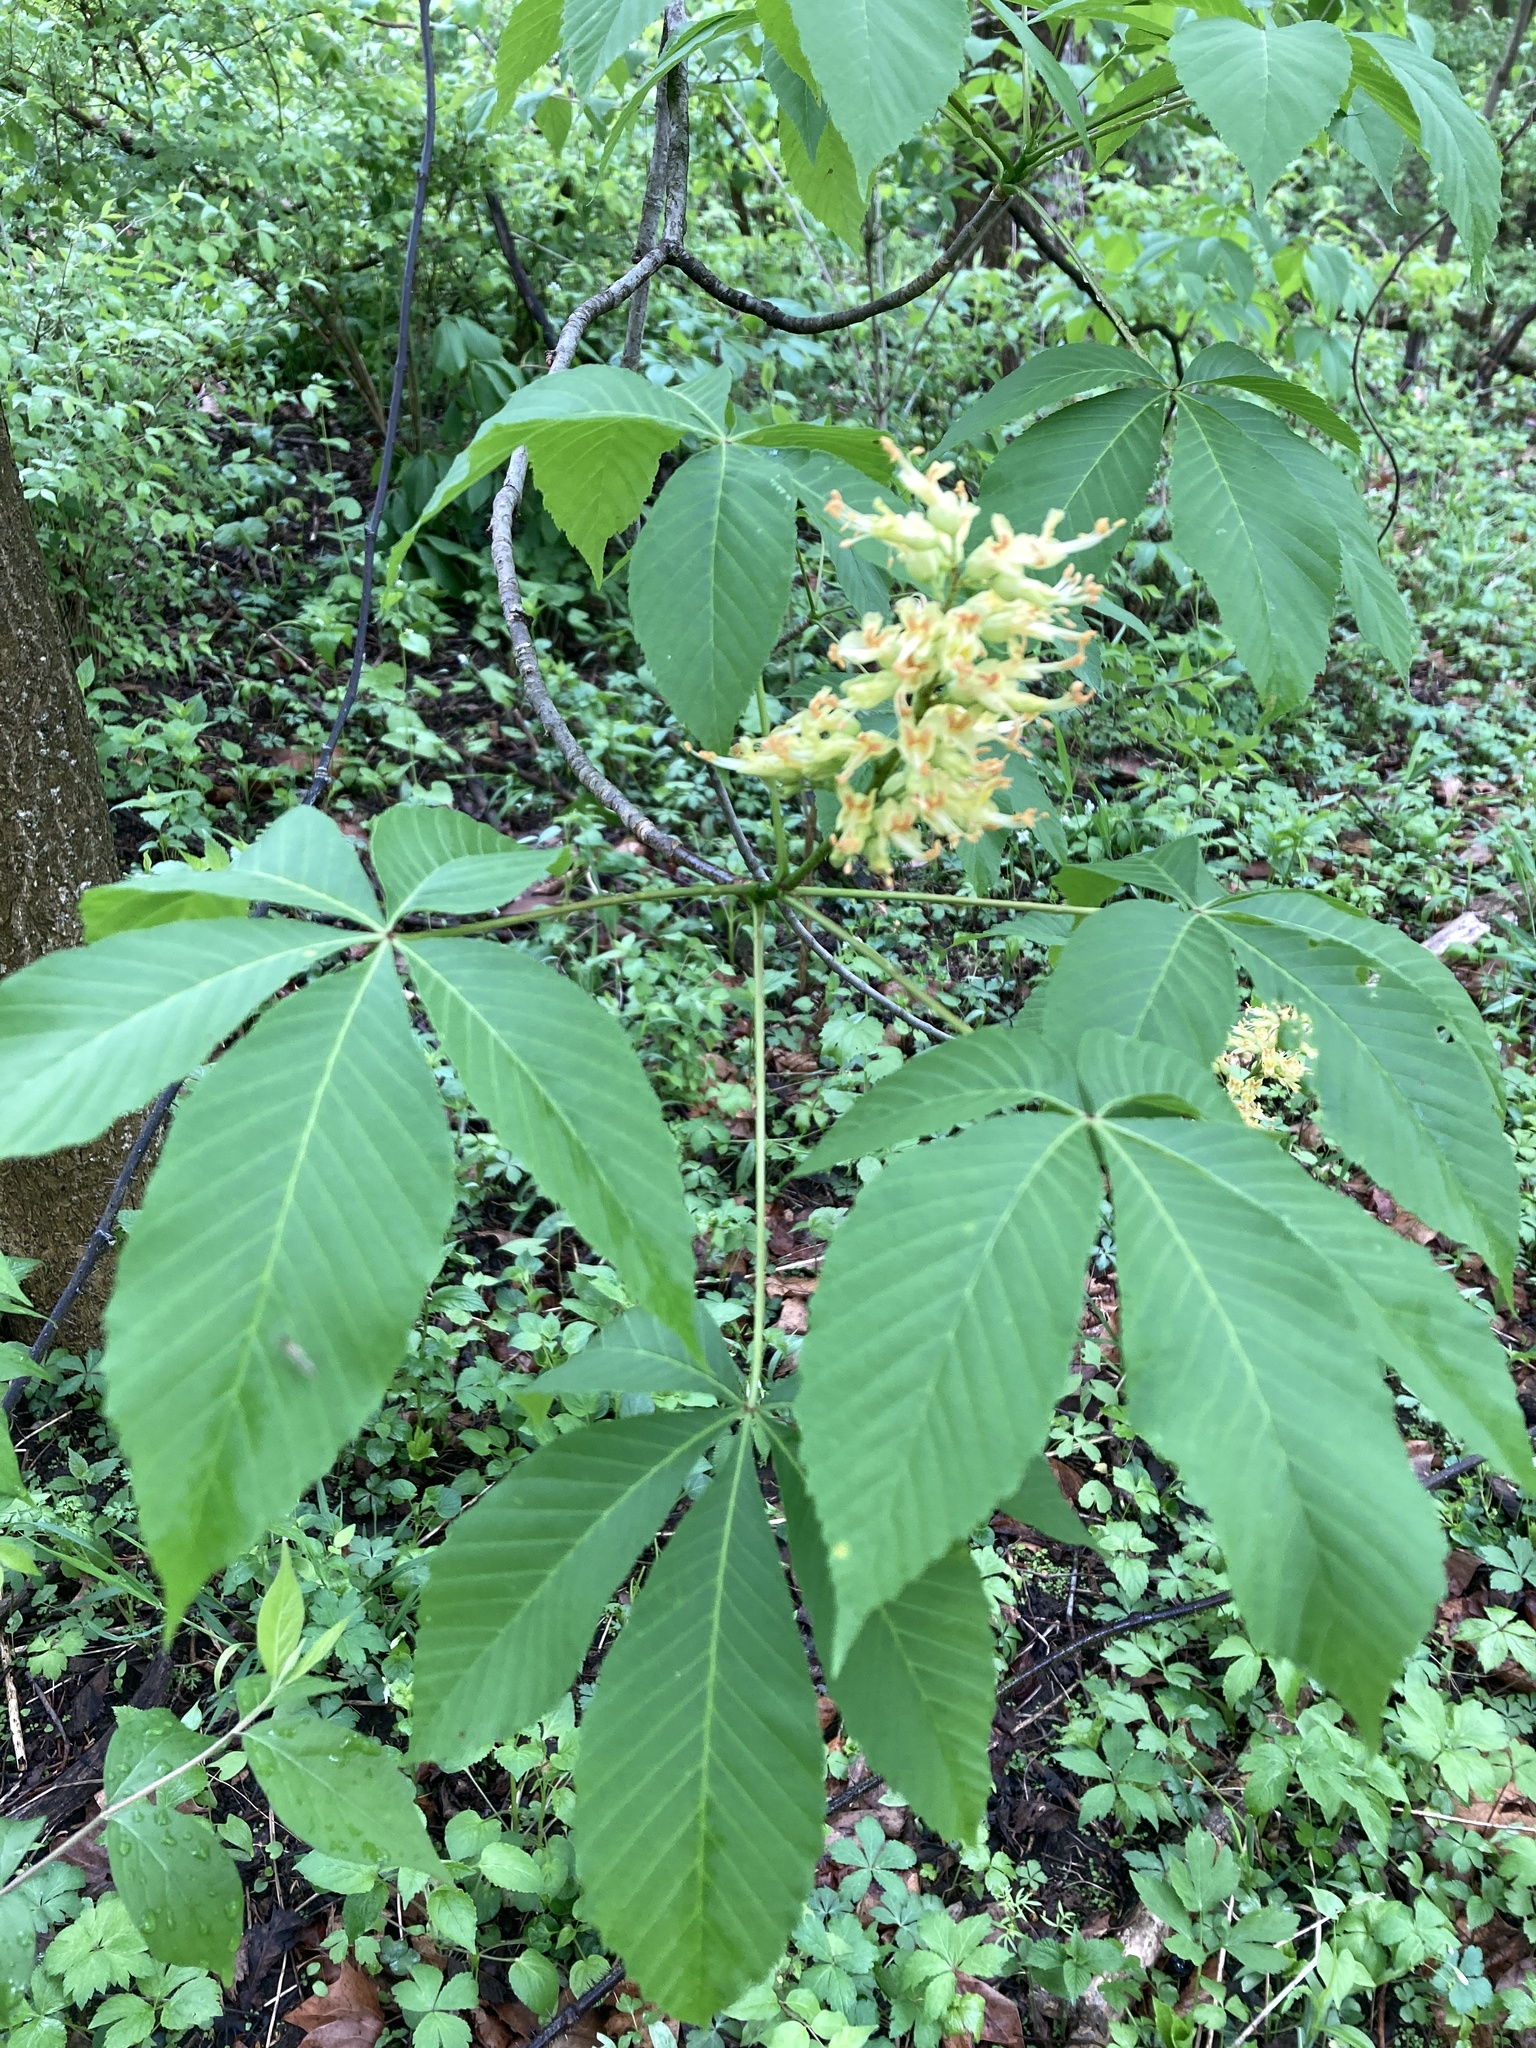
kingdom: Plantae
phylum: Tracheophyta
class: Magnoliopsida
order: Sapindales
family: Sapindaceae
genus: Aesculus
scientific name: Aesculus glabra
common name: Ohio buckeye
